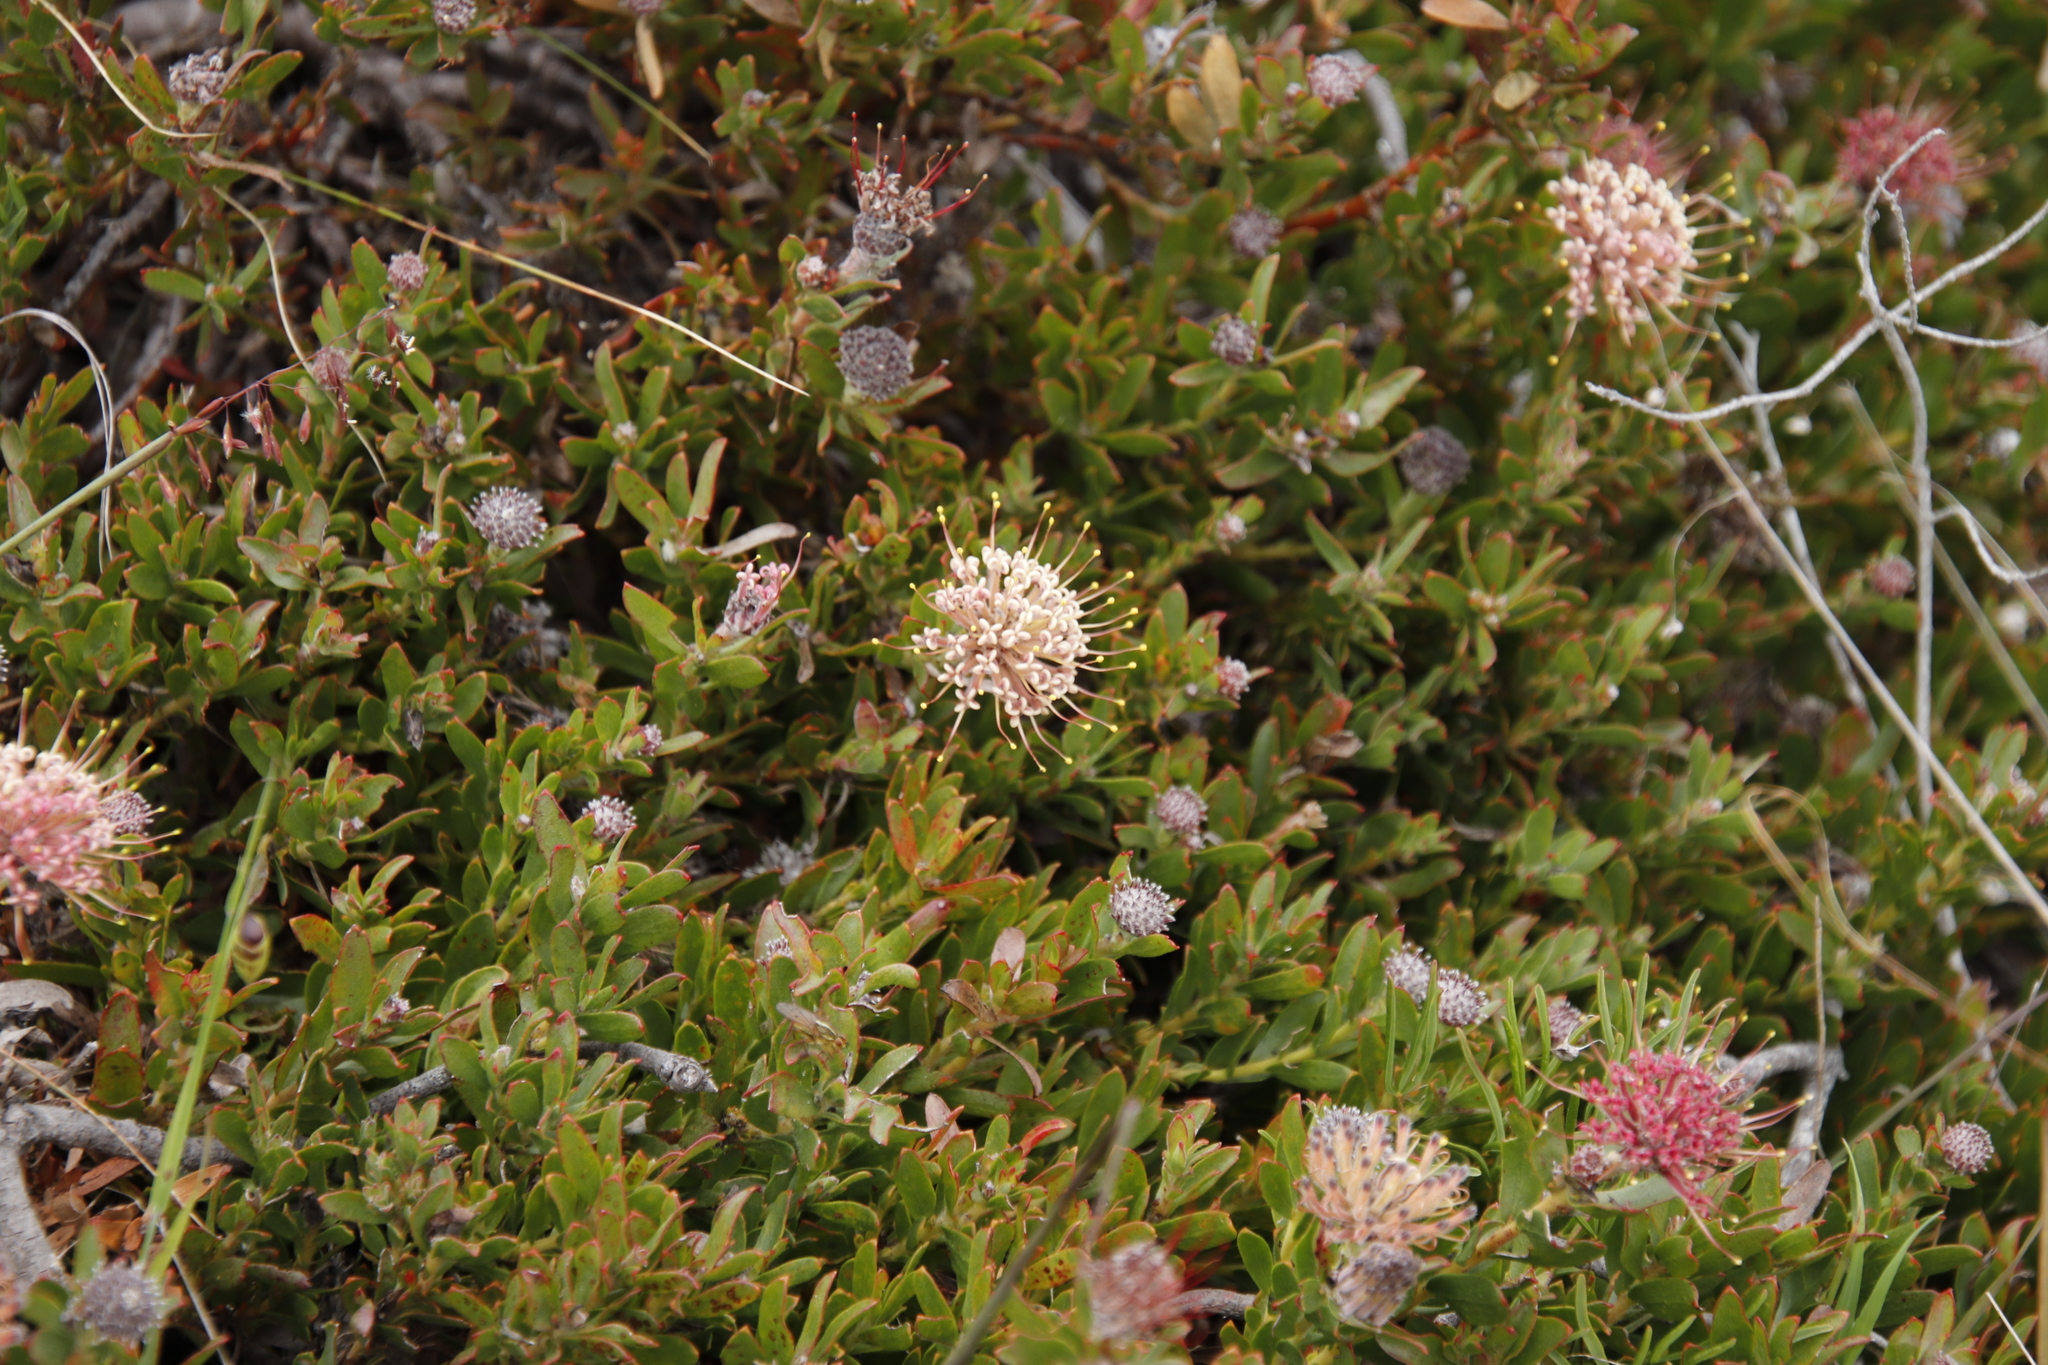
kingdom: Plantae
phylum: Tracheophyta
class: Magnoliopsida
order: Proteales
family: Proteaceae
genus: Leucospermum
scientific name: Leucospermum heterophyllum
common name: Trident pincushion
